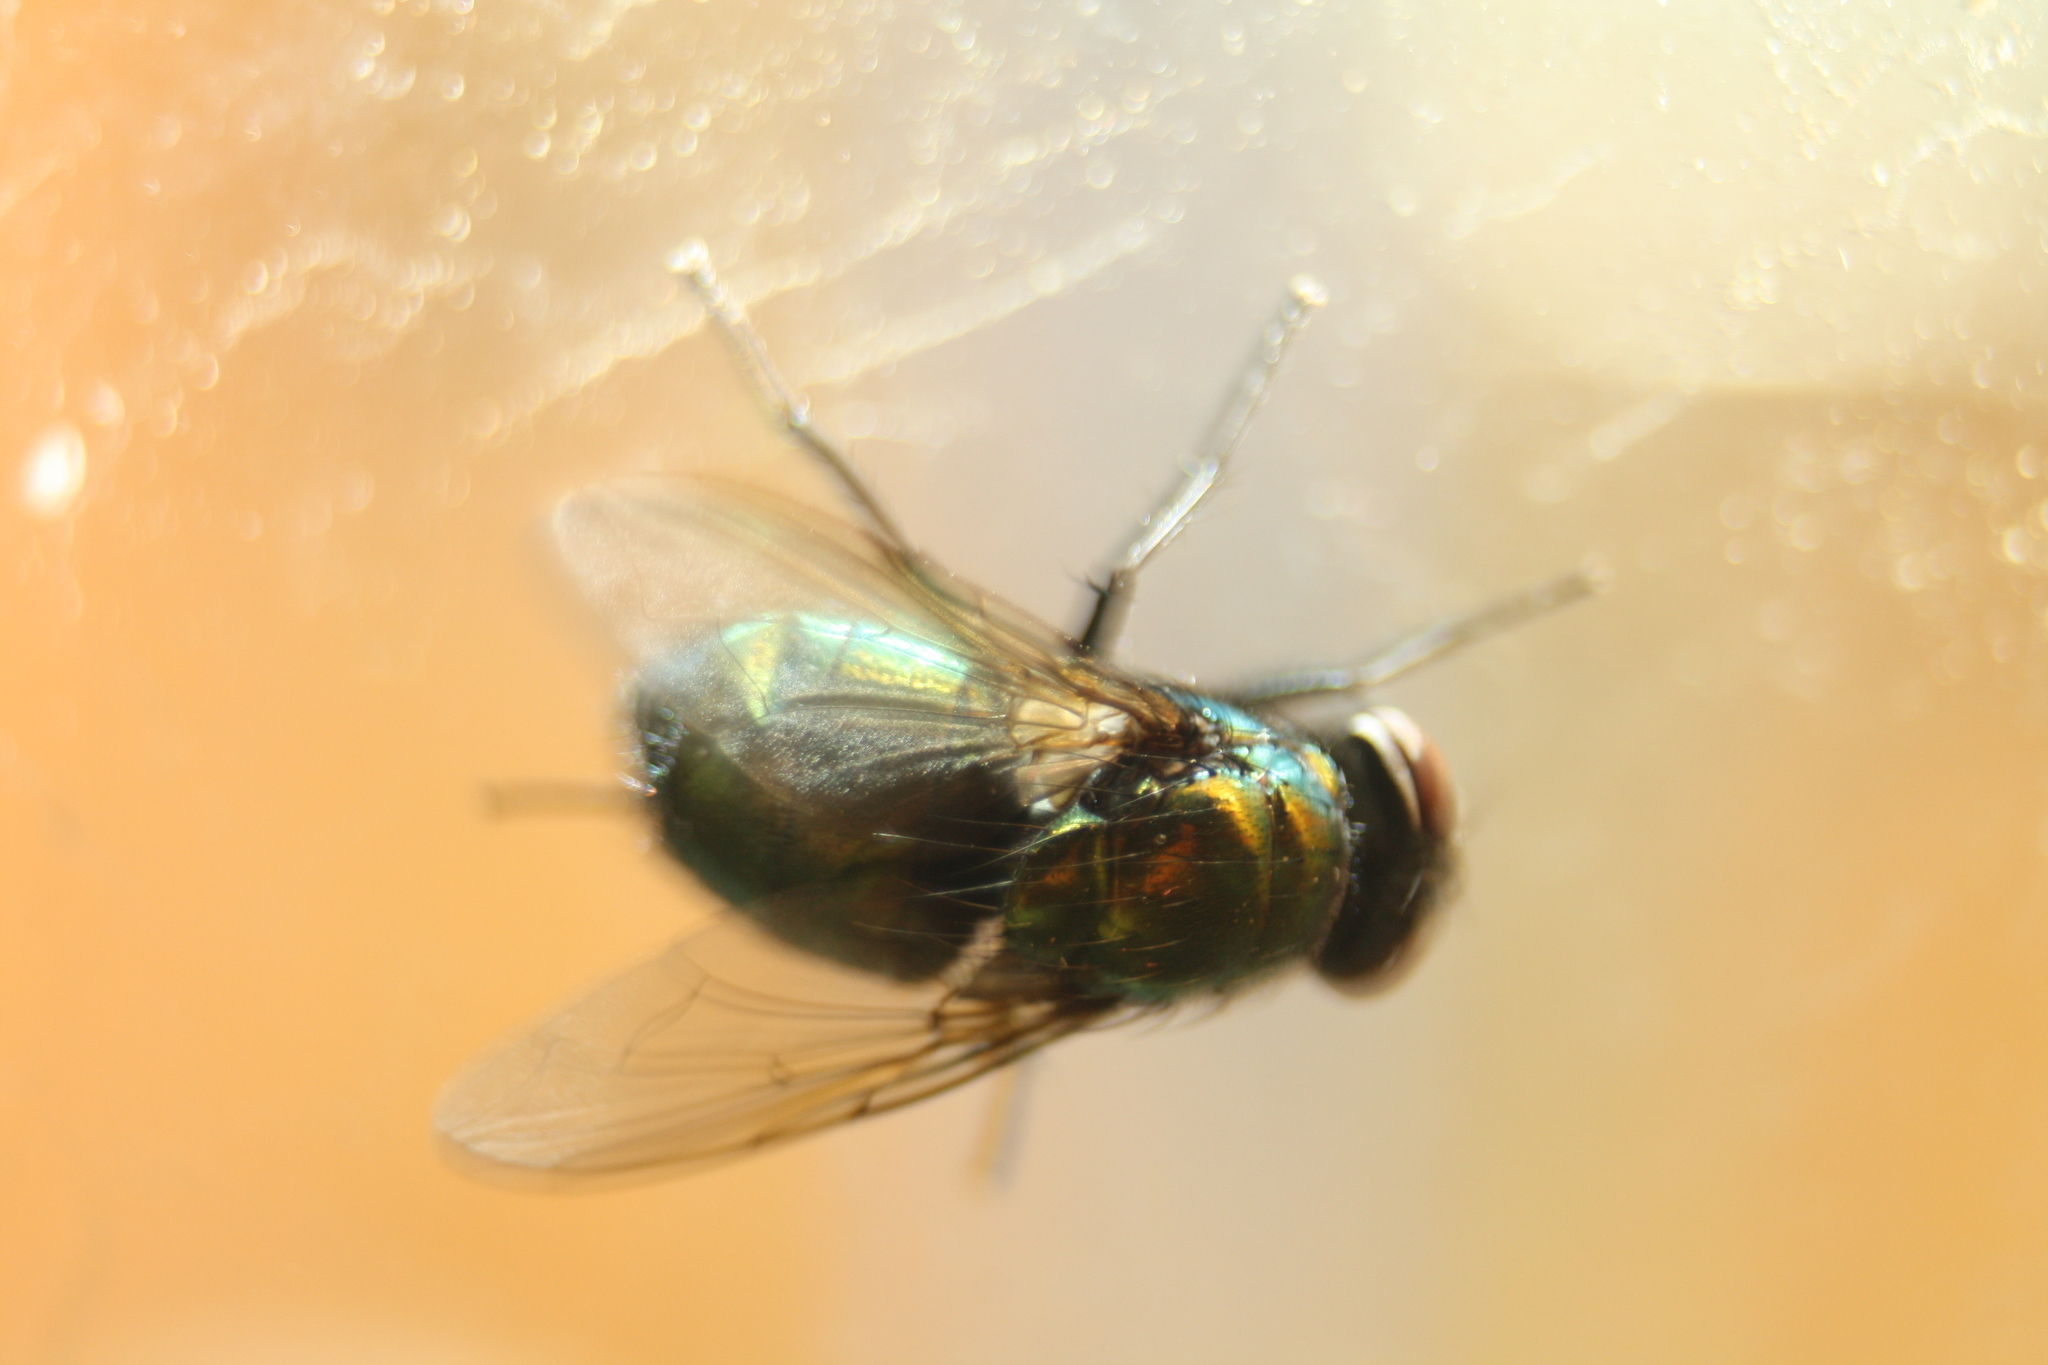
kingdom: Animalia
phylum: Arthropoda
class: Insecta
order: Diptera
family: Calliphoridae
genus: Lucilia
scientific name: Lucilia
